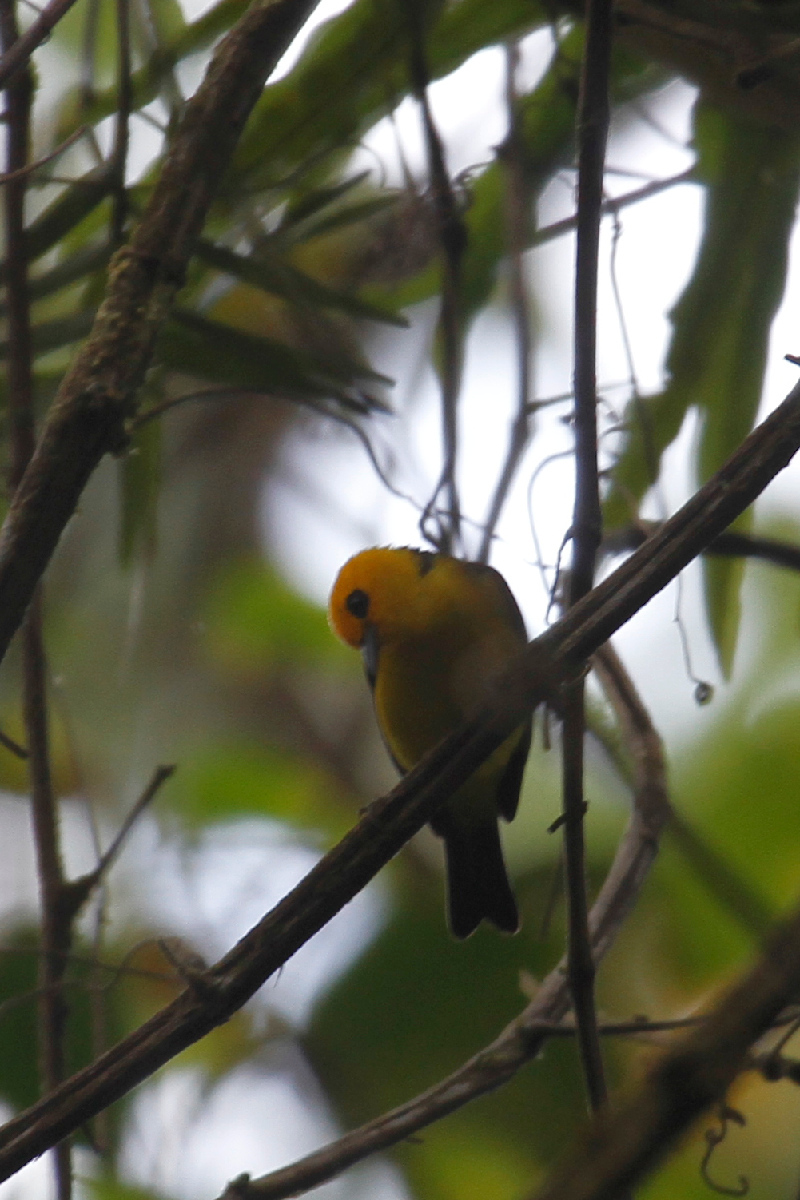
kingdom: Animalia
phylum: Chordata
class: Aves
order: Passeriformes
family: Thraupidae
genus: Chrysothlypis
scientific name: Chrysothlypis chrysomelas
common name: Black-and-yellow tanager
